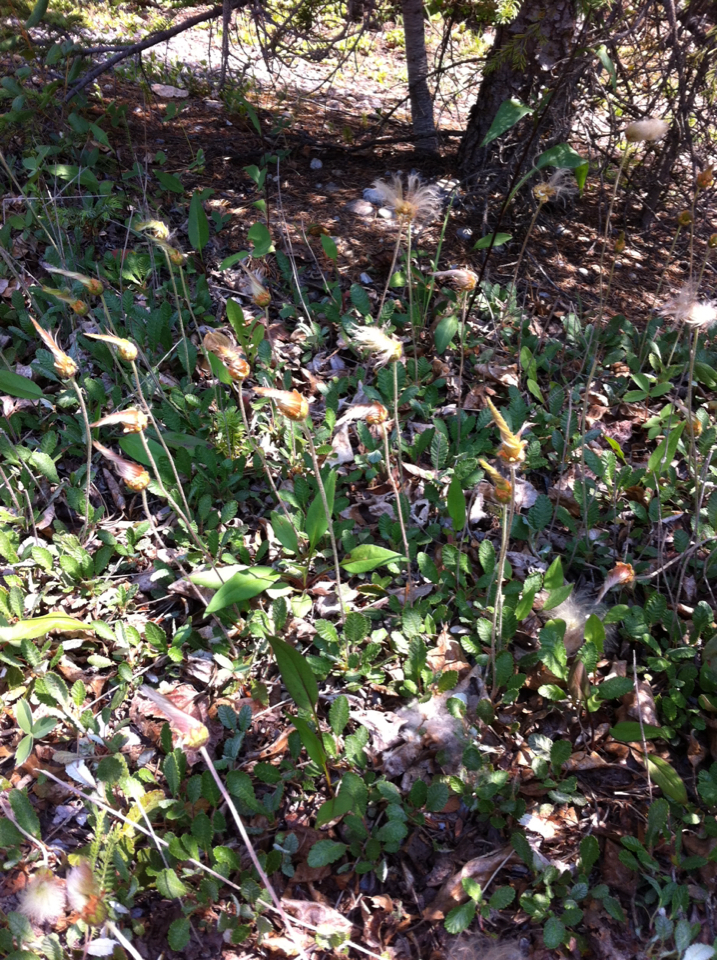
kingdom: Plantae
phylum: Tracheophyta
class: Magnoliopsida
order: Rosales
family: Rosaceae
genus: Dryas
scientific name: Dryas drummondii
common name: Drummond's dryad
